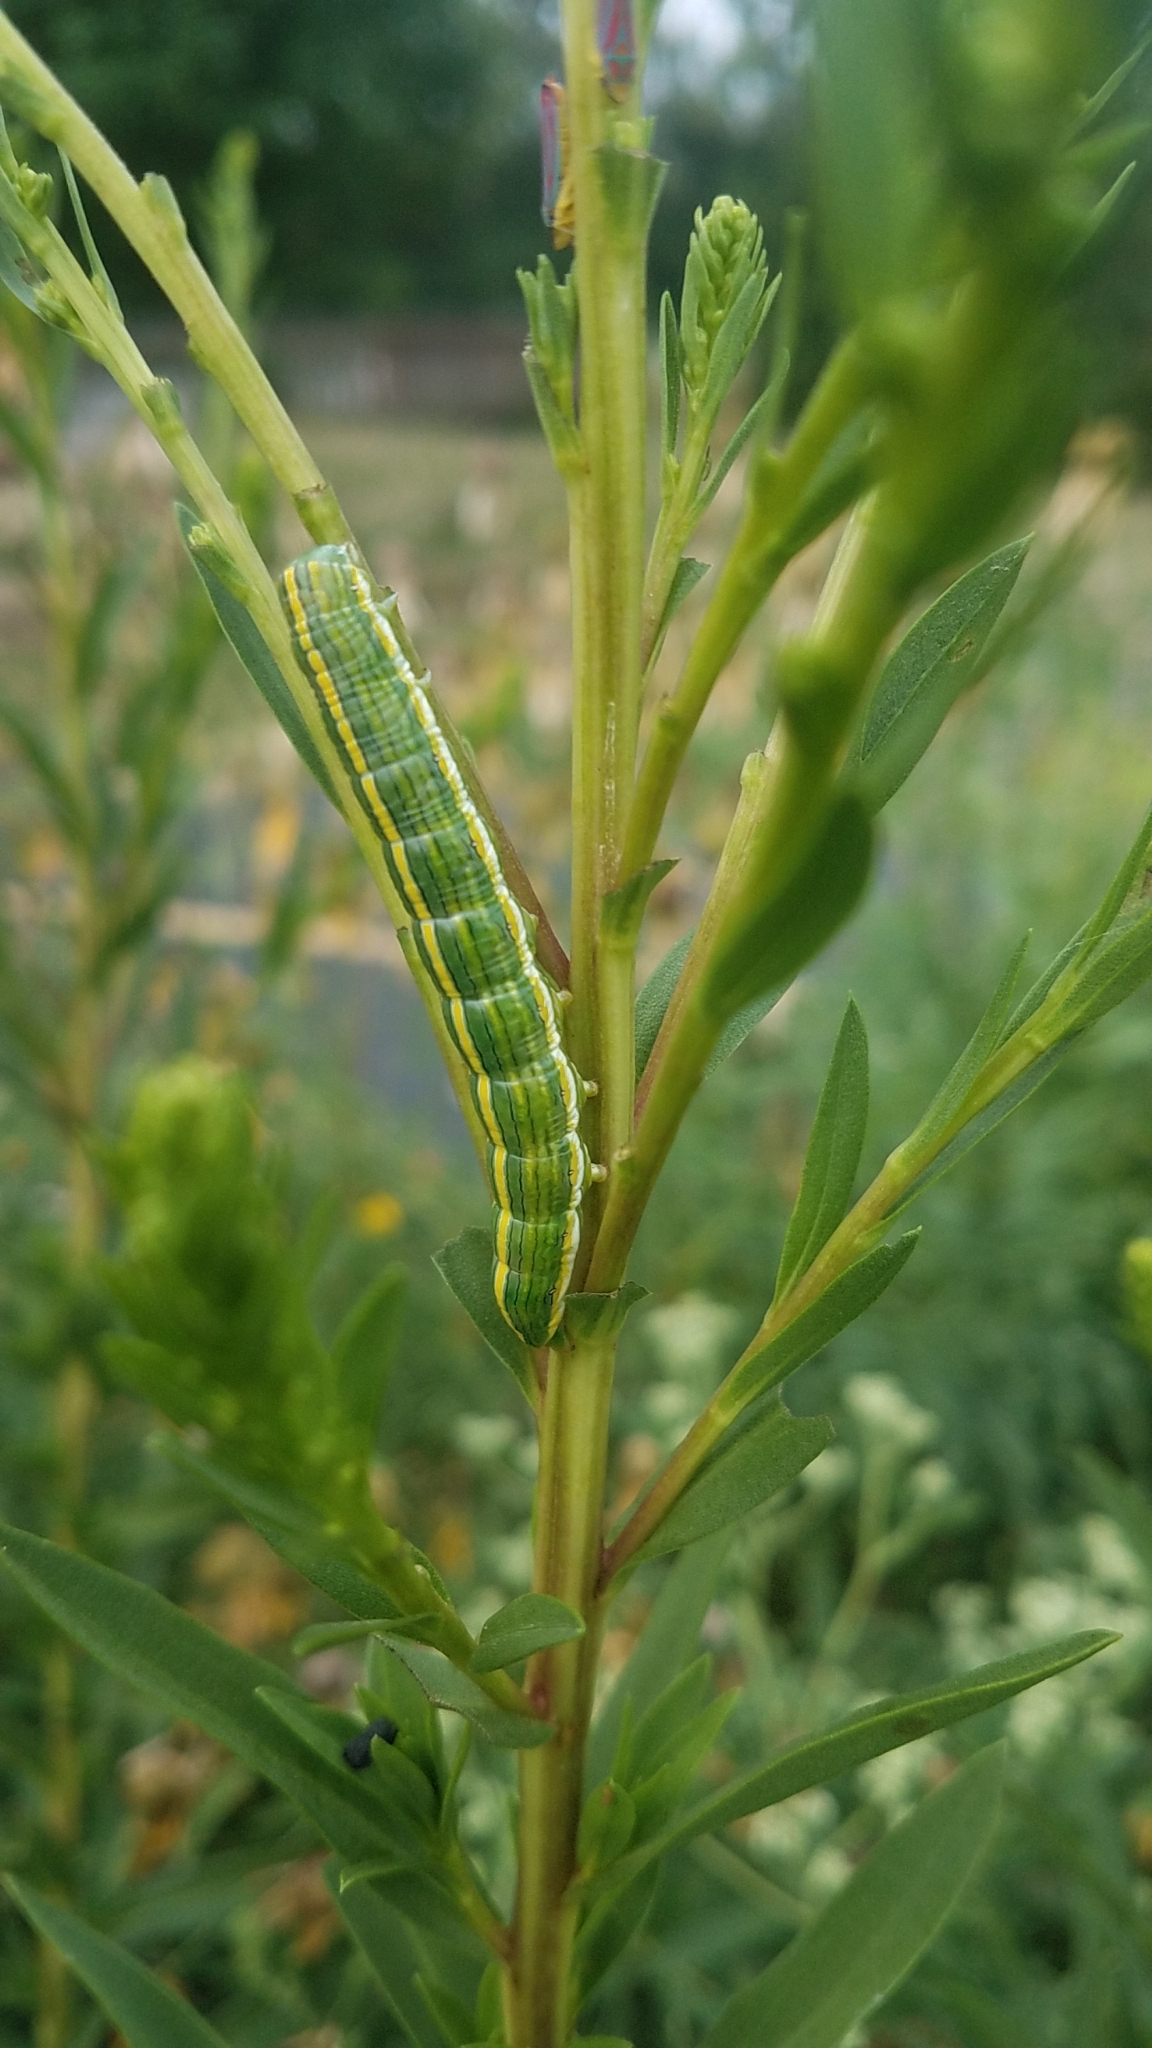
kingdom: Animalia
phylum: Arthropoda
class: Insecta
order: Lepidoptera
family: Noctuidae
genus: Cucullia
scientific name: Cucullia asteroides
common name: Asteroid moth
